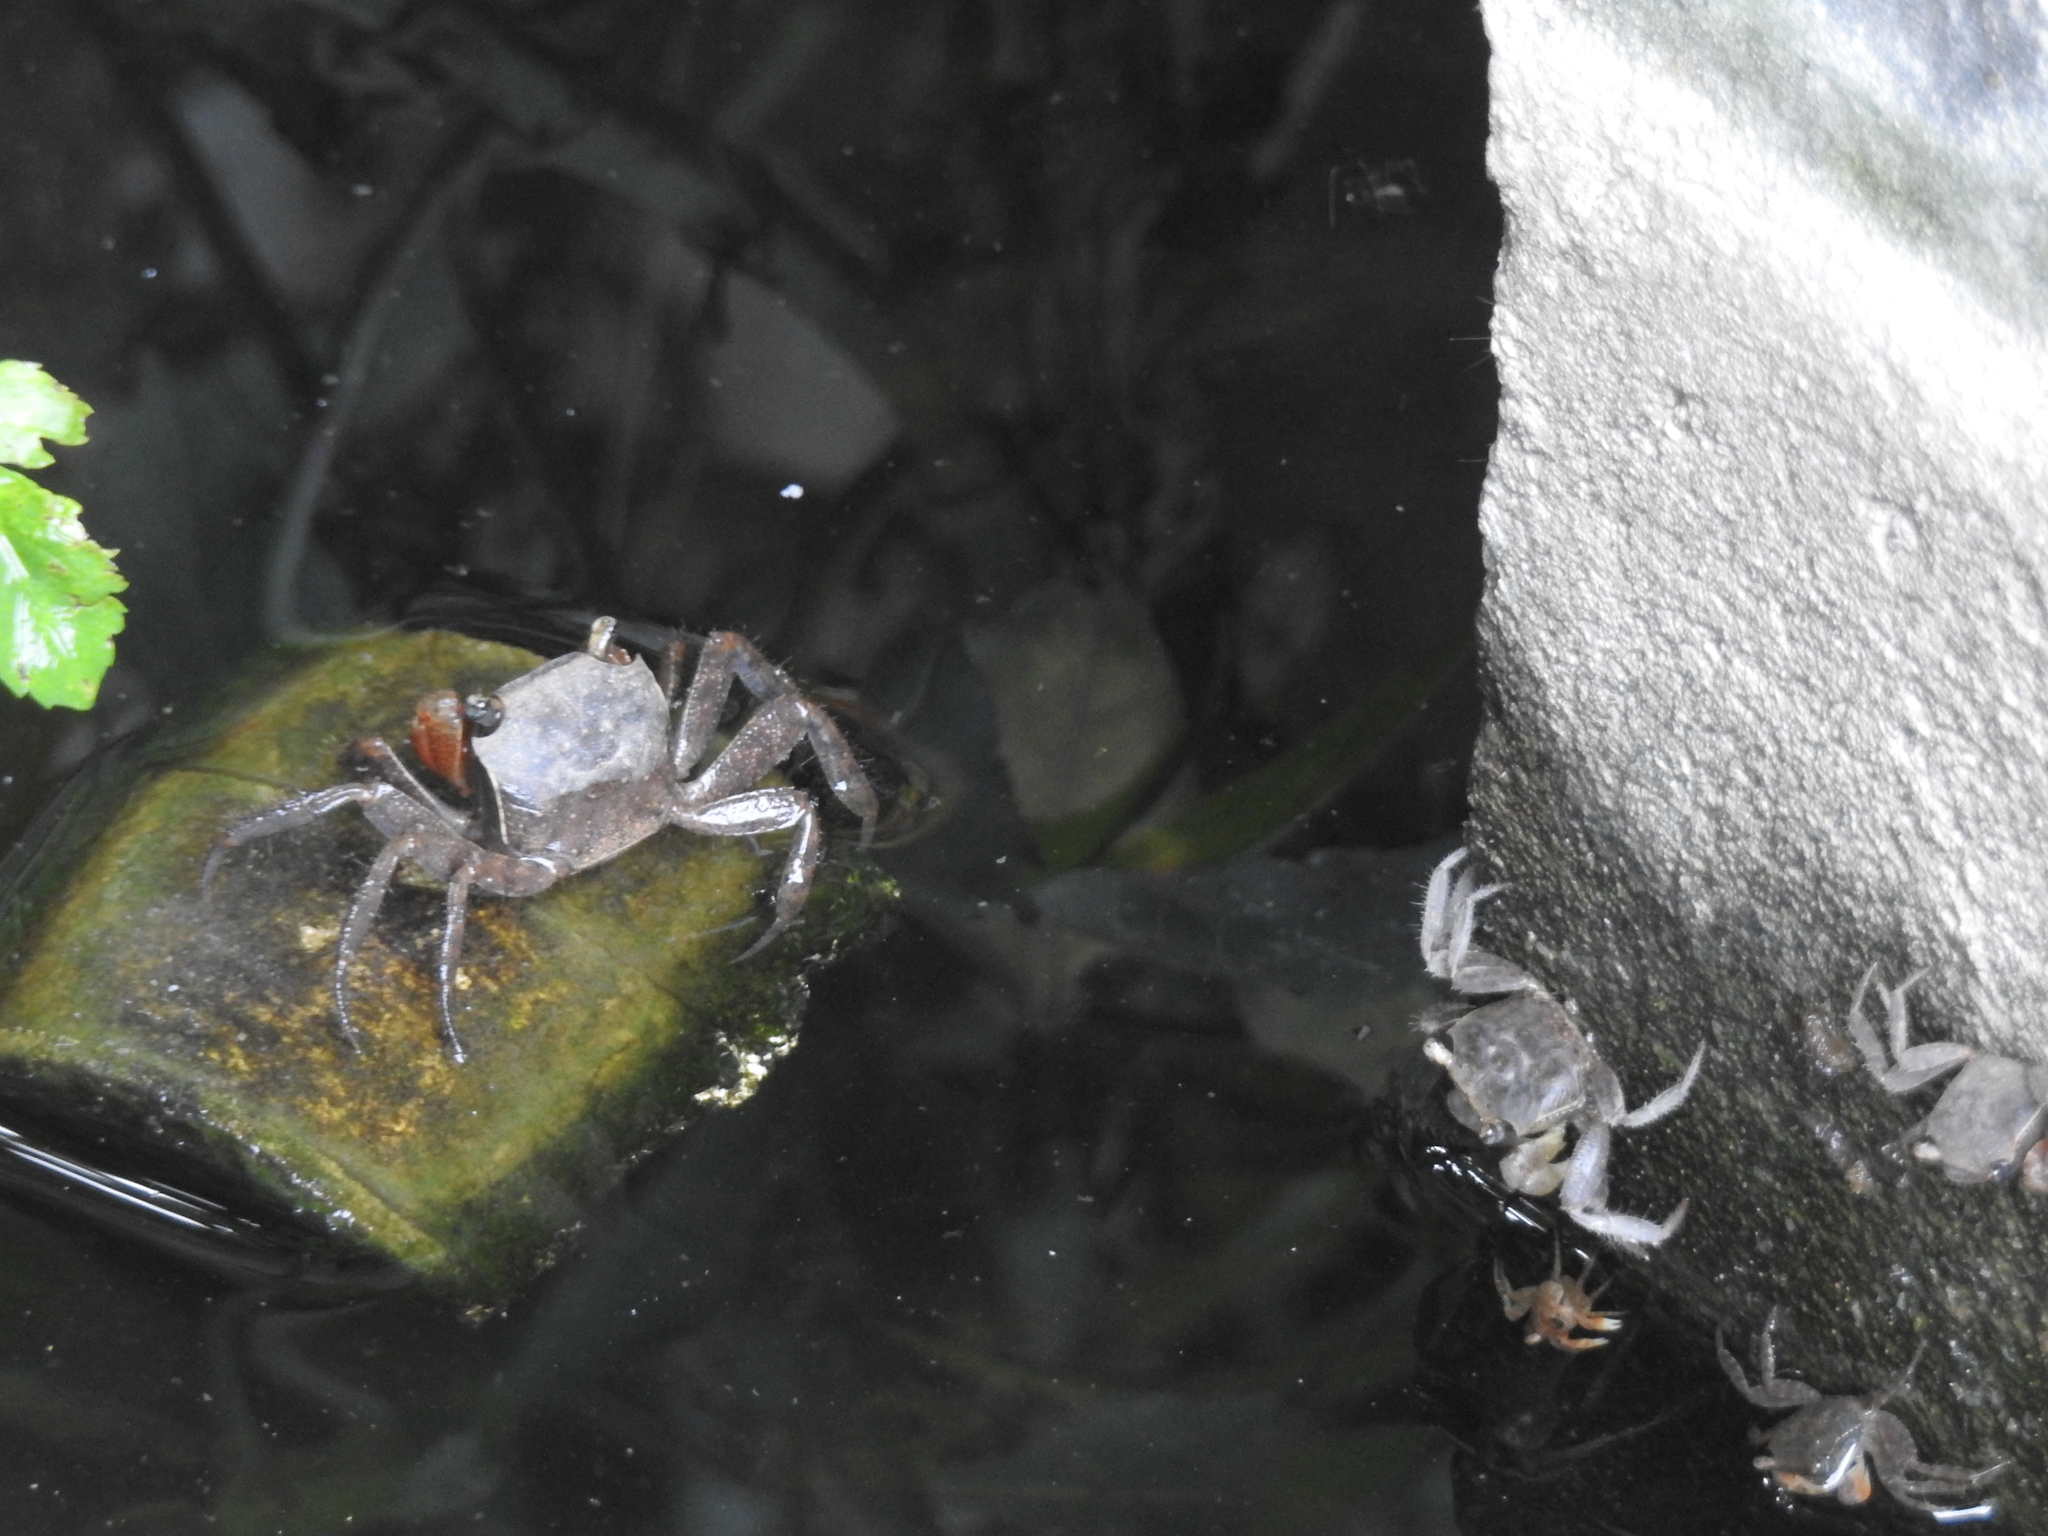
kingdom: Animalia
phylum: Arthropoda
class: Malacostraca
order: Decapoda
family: Sesarmidae
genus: Chiromantes
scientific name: Chiromantes haematocheir
